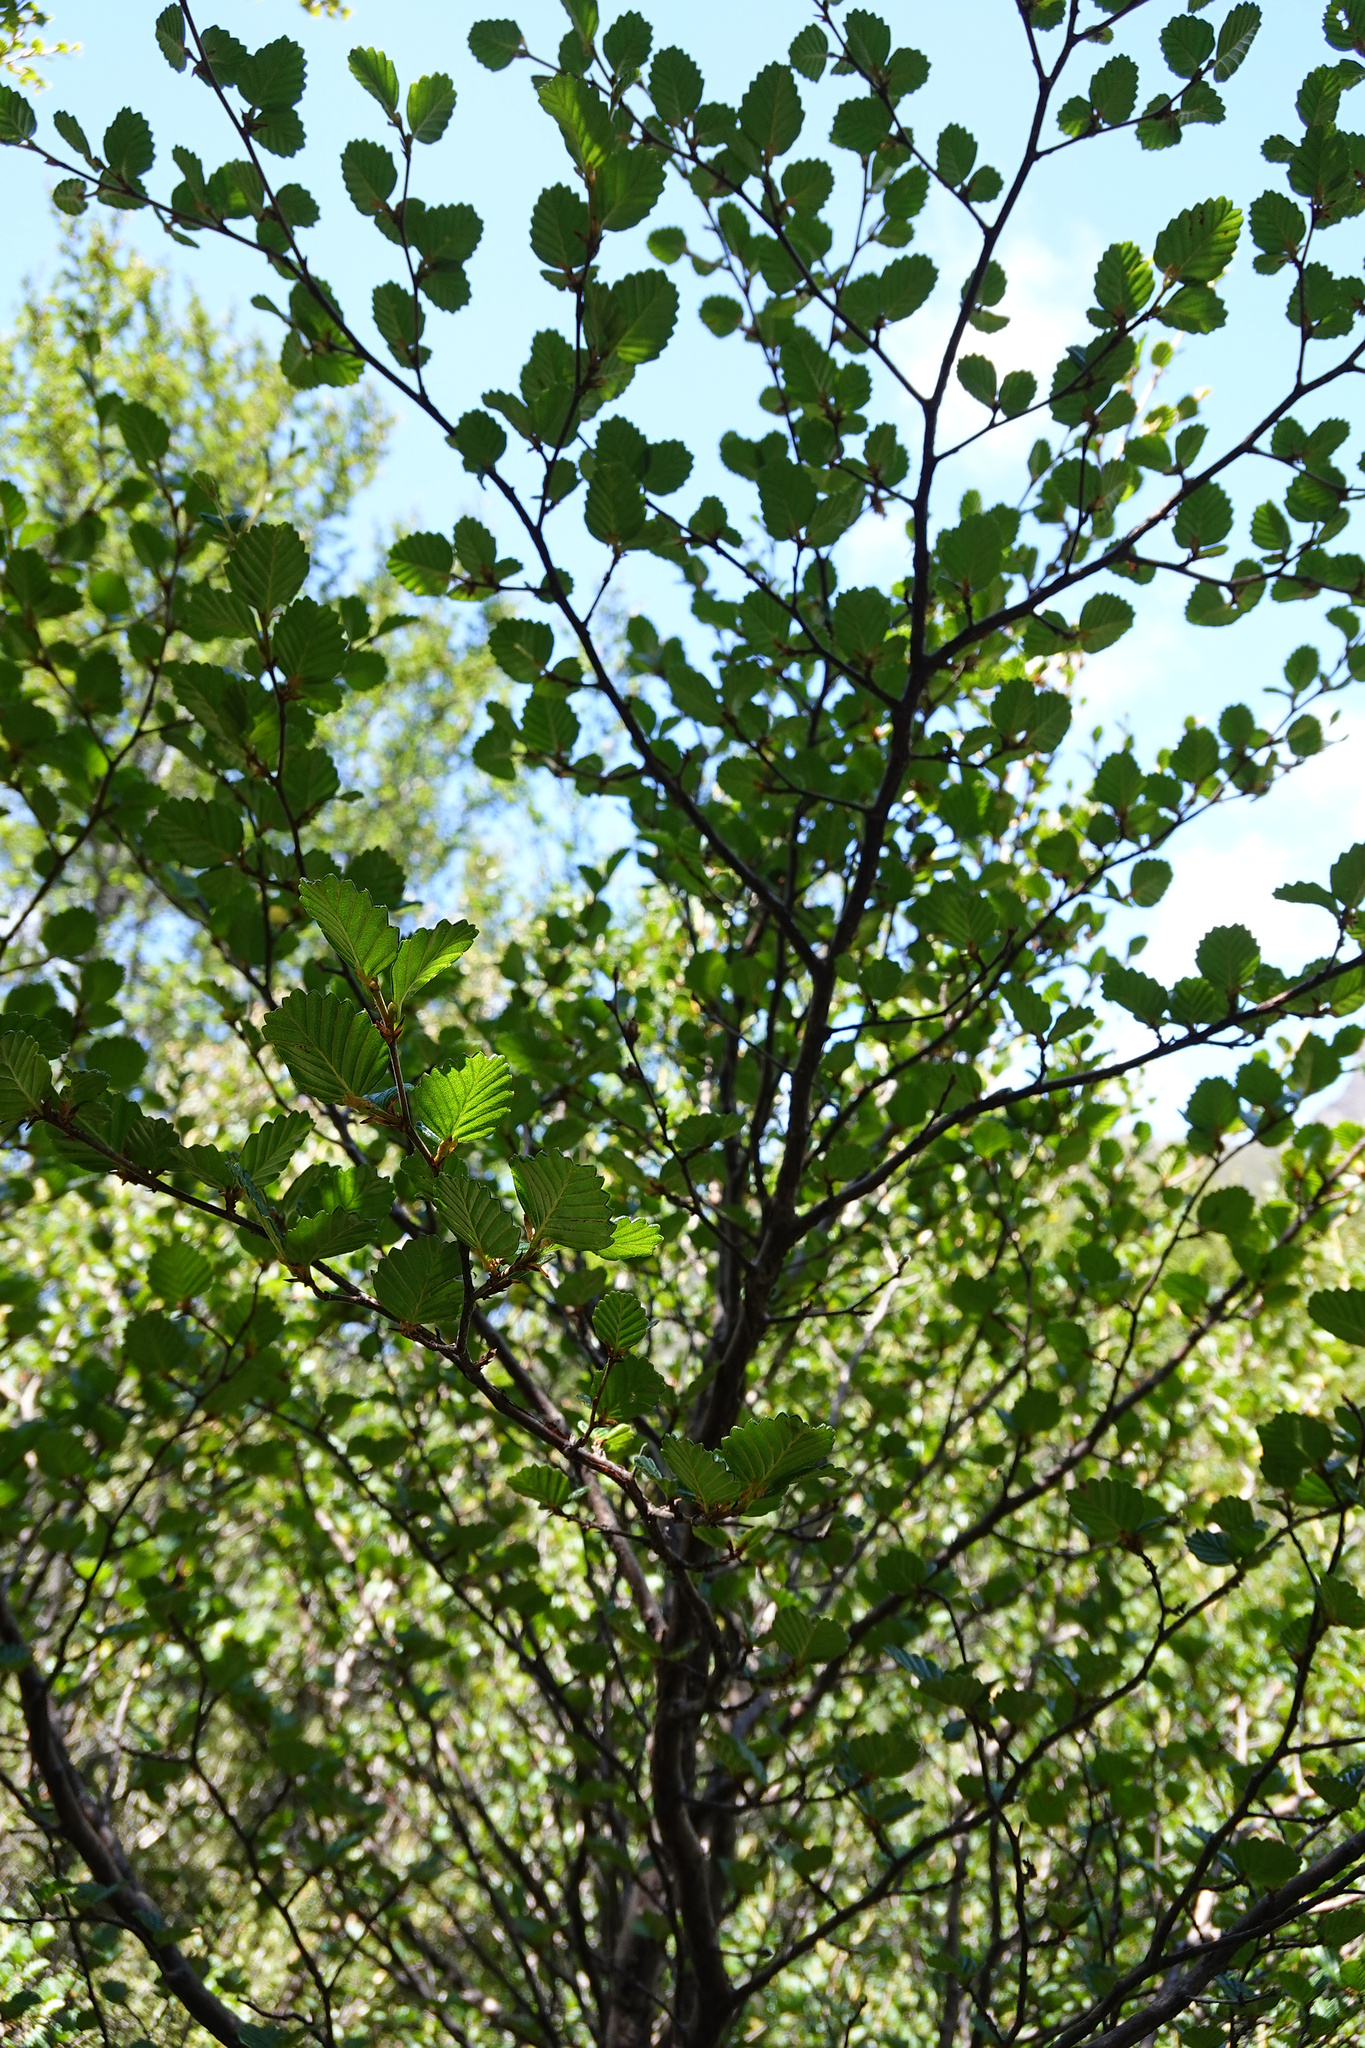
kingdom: Plantae
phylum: Tracheophyta
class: Magnoliopsida
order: Fagales
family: Nothofagaceae
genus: Nothofagus
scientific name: Nothofagus gunnii
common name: Tanglefoot
